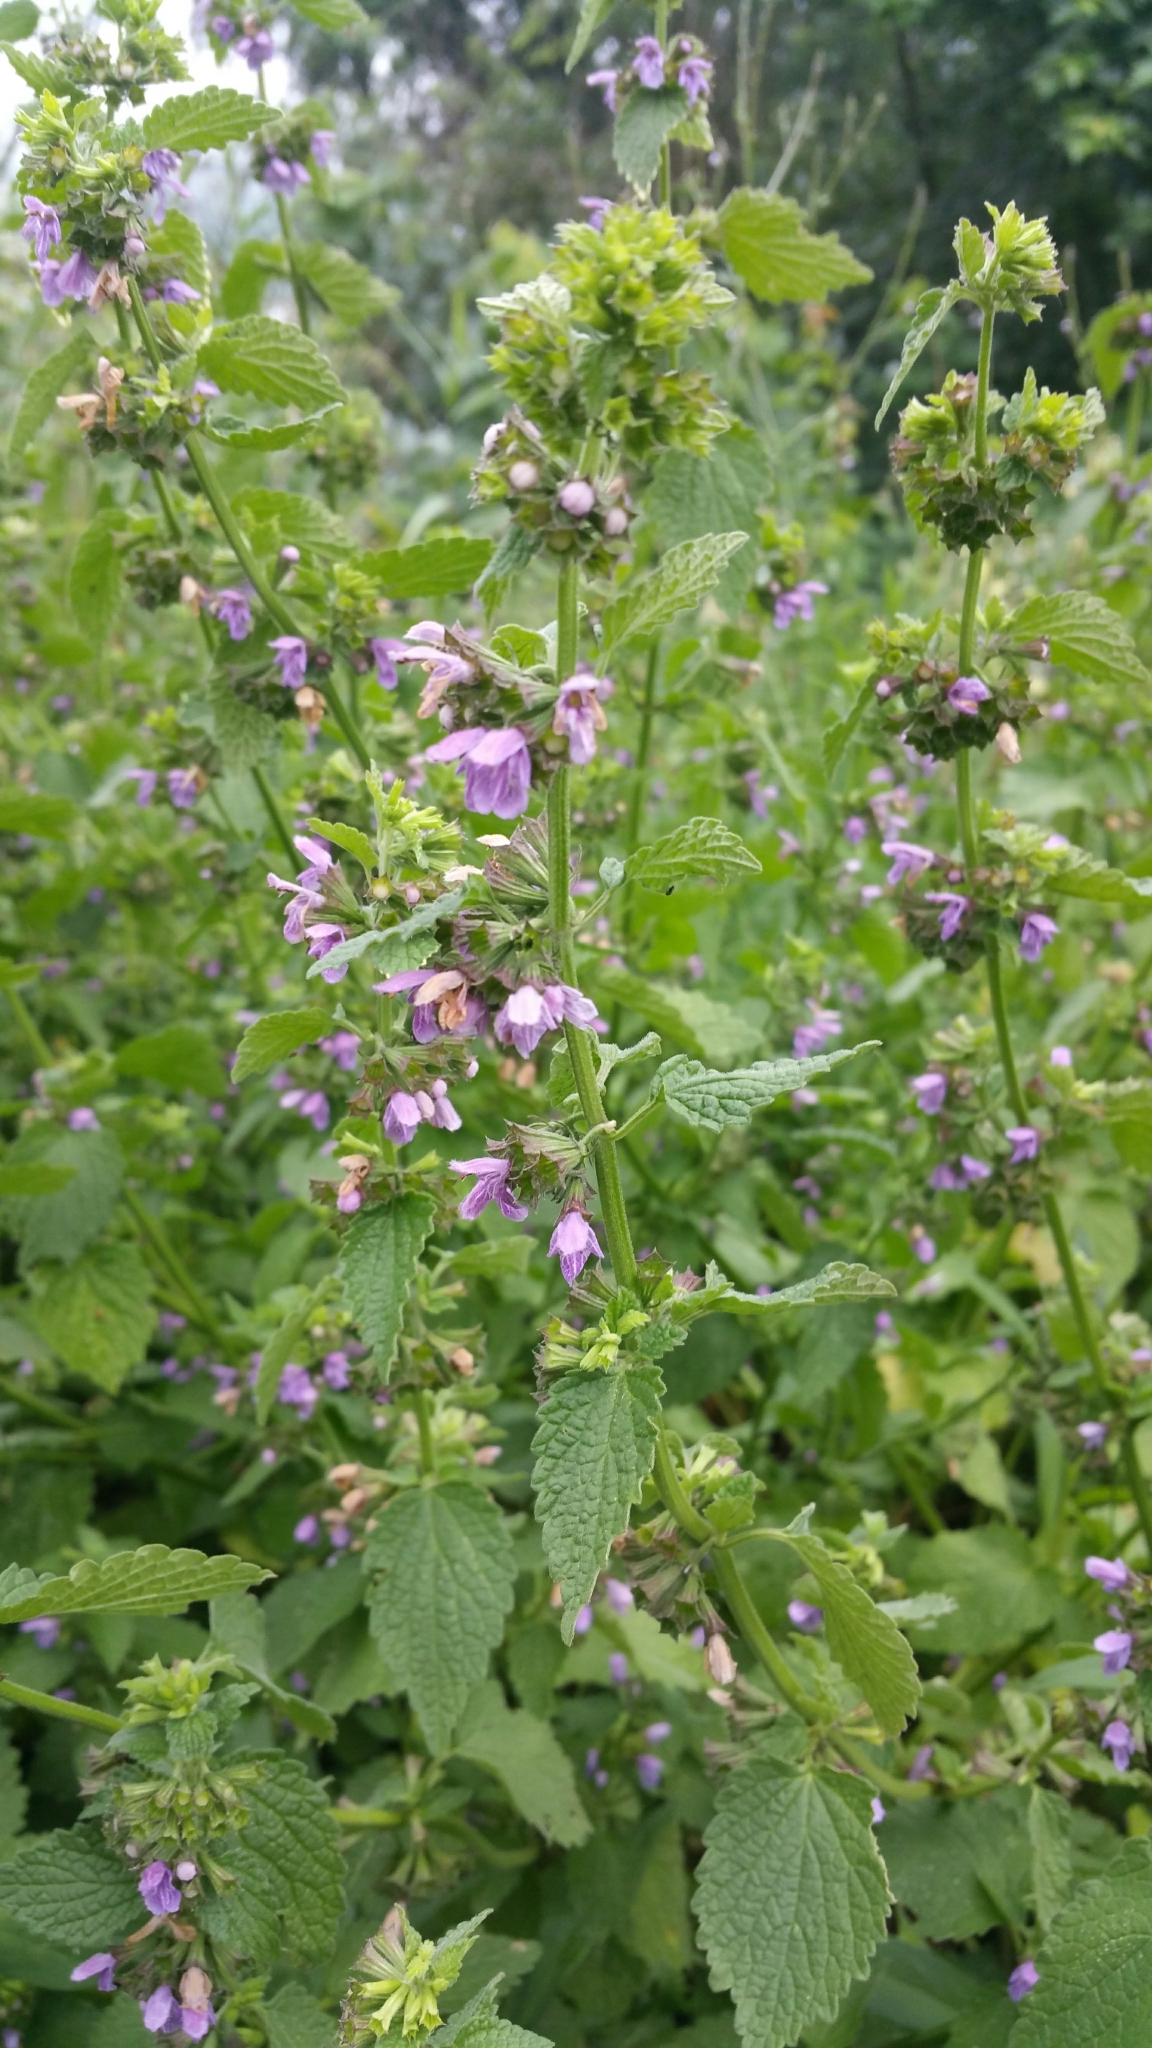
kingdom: Plantae
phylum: Tracheophyta
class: Magnoliopsida
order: Lamiales
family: Lamiaceae
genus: Ballota
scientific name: Ballota nigra
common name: Black horehound
